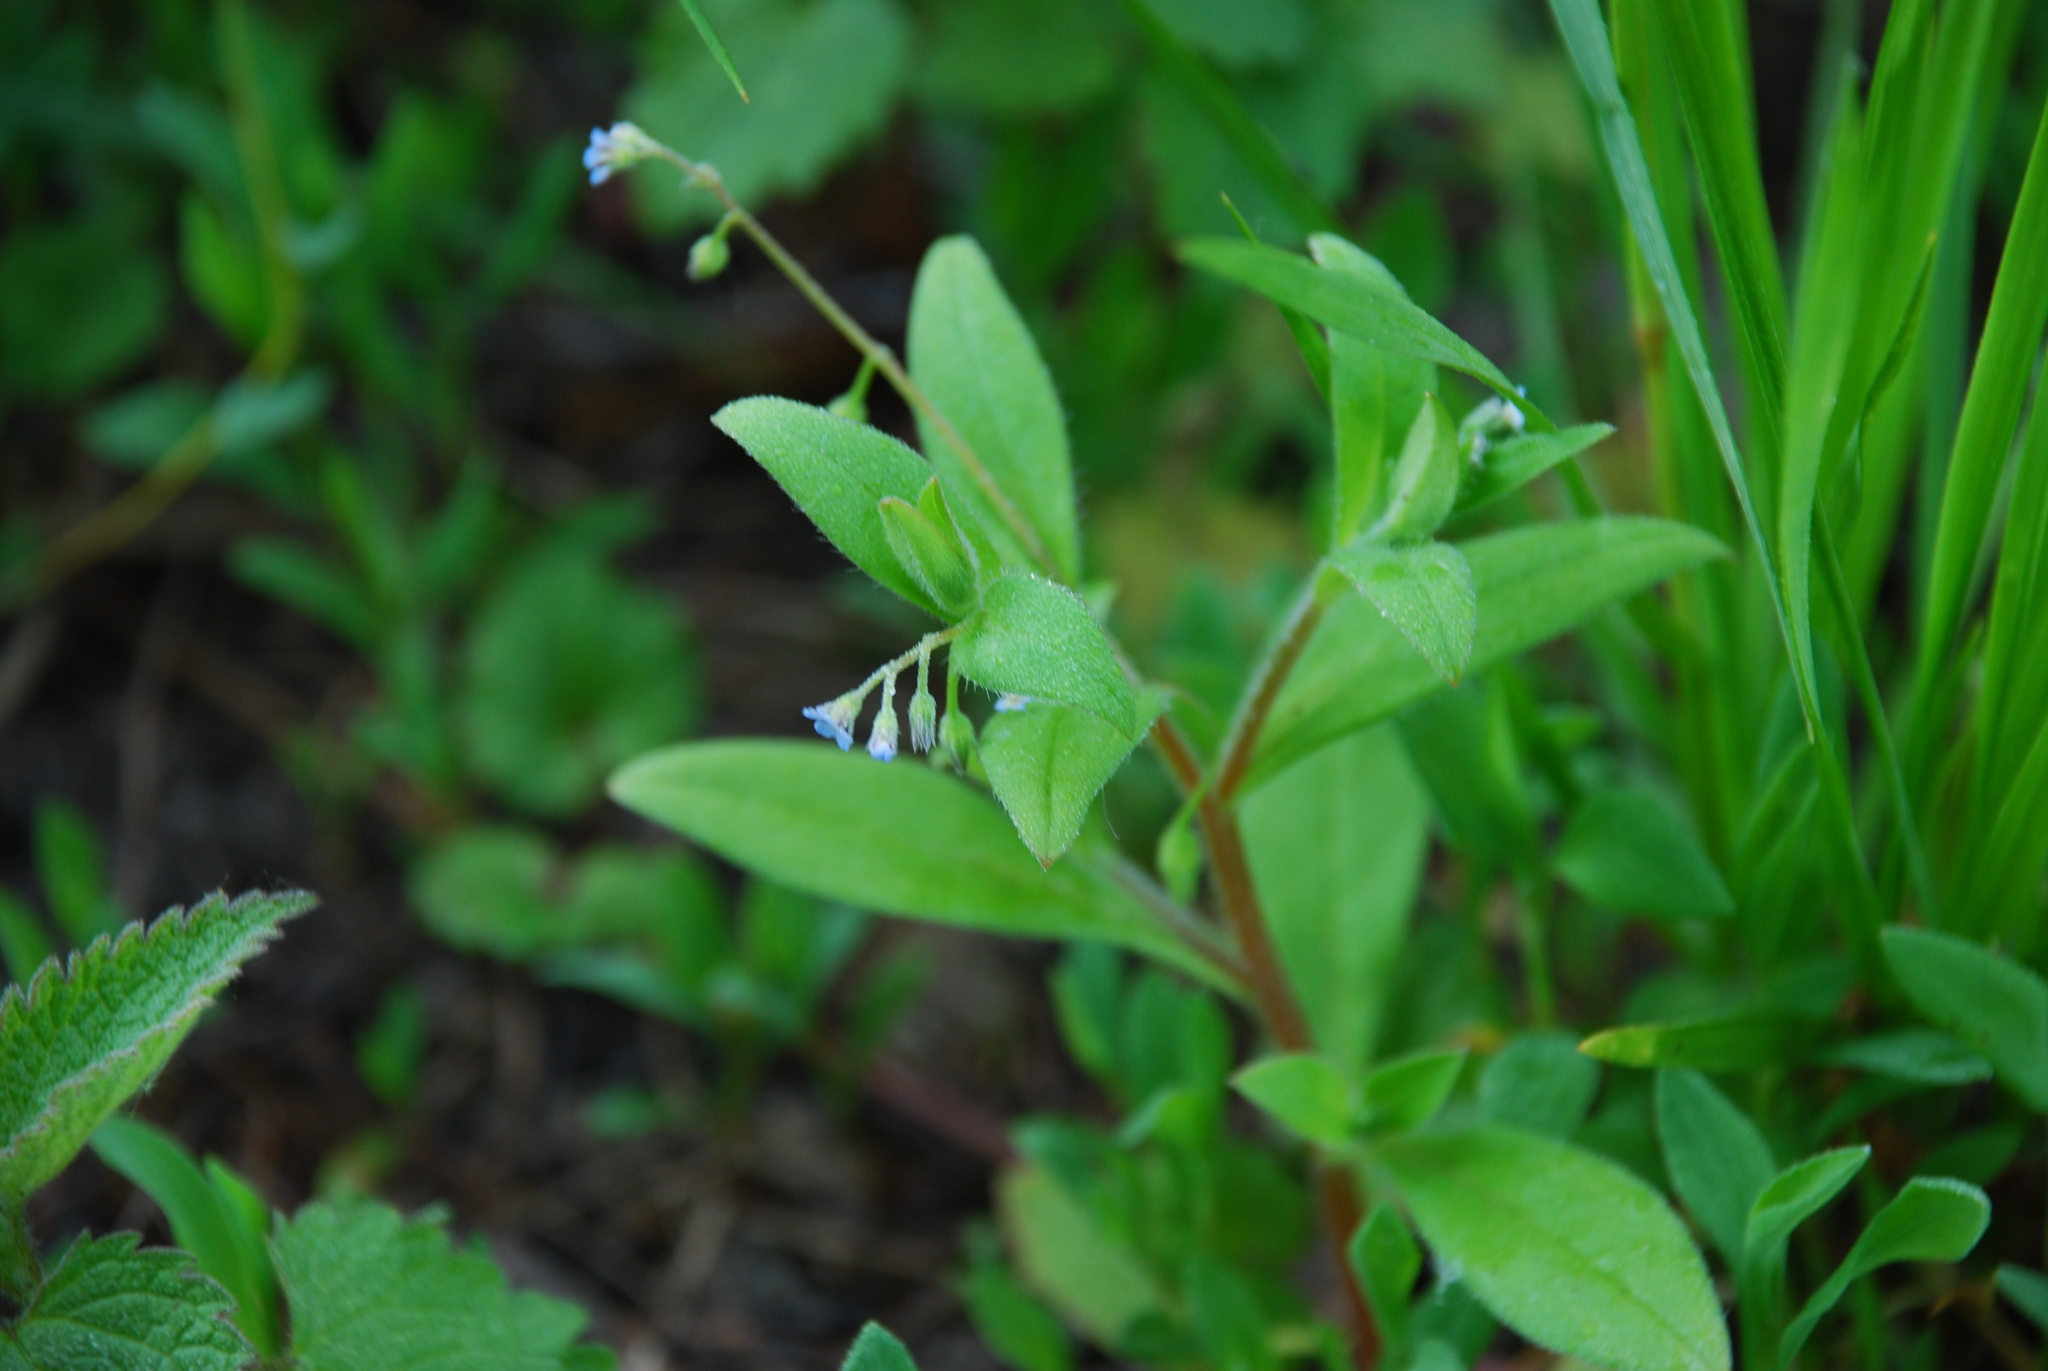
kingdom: Plantae
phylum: Tracheophyta
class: Magnoliopsida
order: Boraginales
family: Boraginaceae
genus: Myosotis
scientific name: Myosotis sparsiflora
